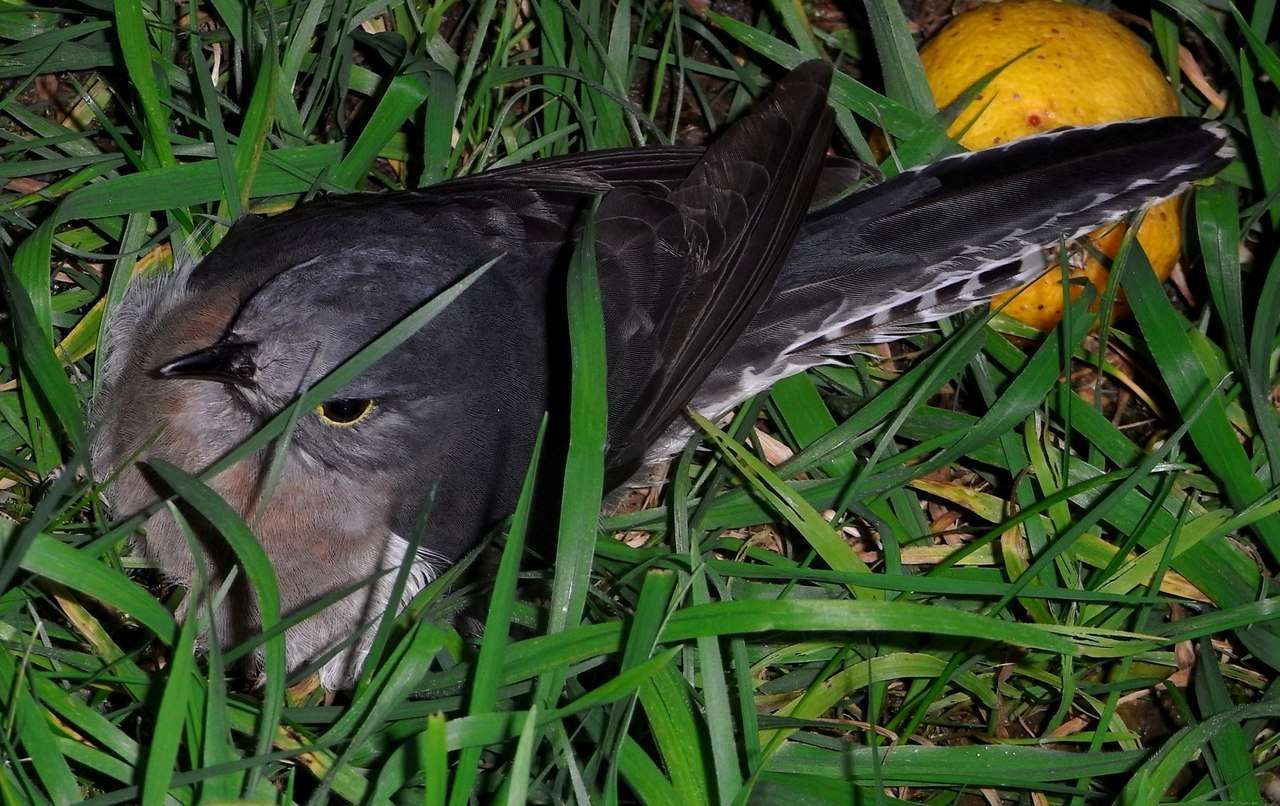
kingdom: Animalia
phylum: Chordata
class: Aves
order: Cuculiformes
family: Cuculidae
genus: Cacomantis
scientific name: Cacomantis flabelliformis
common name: Fan-tailed cuckoo
